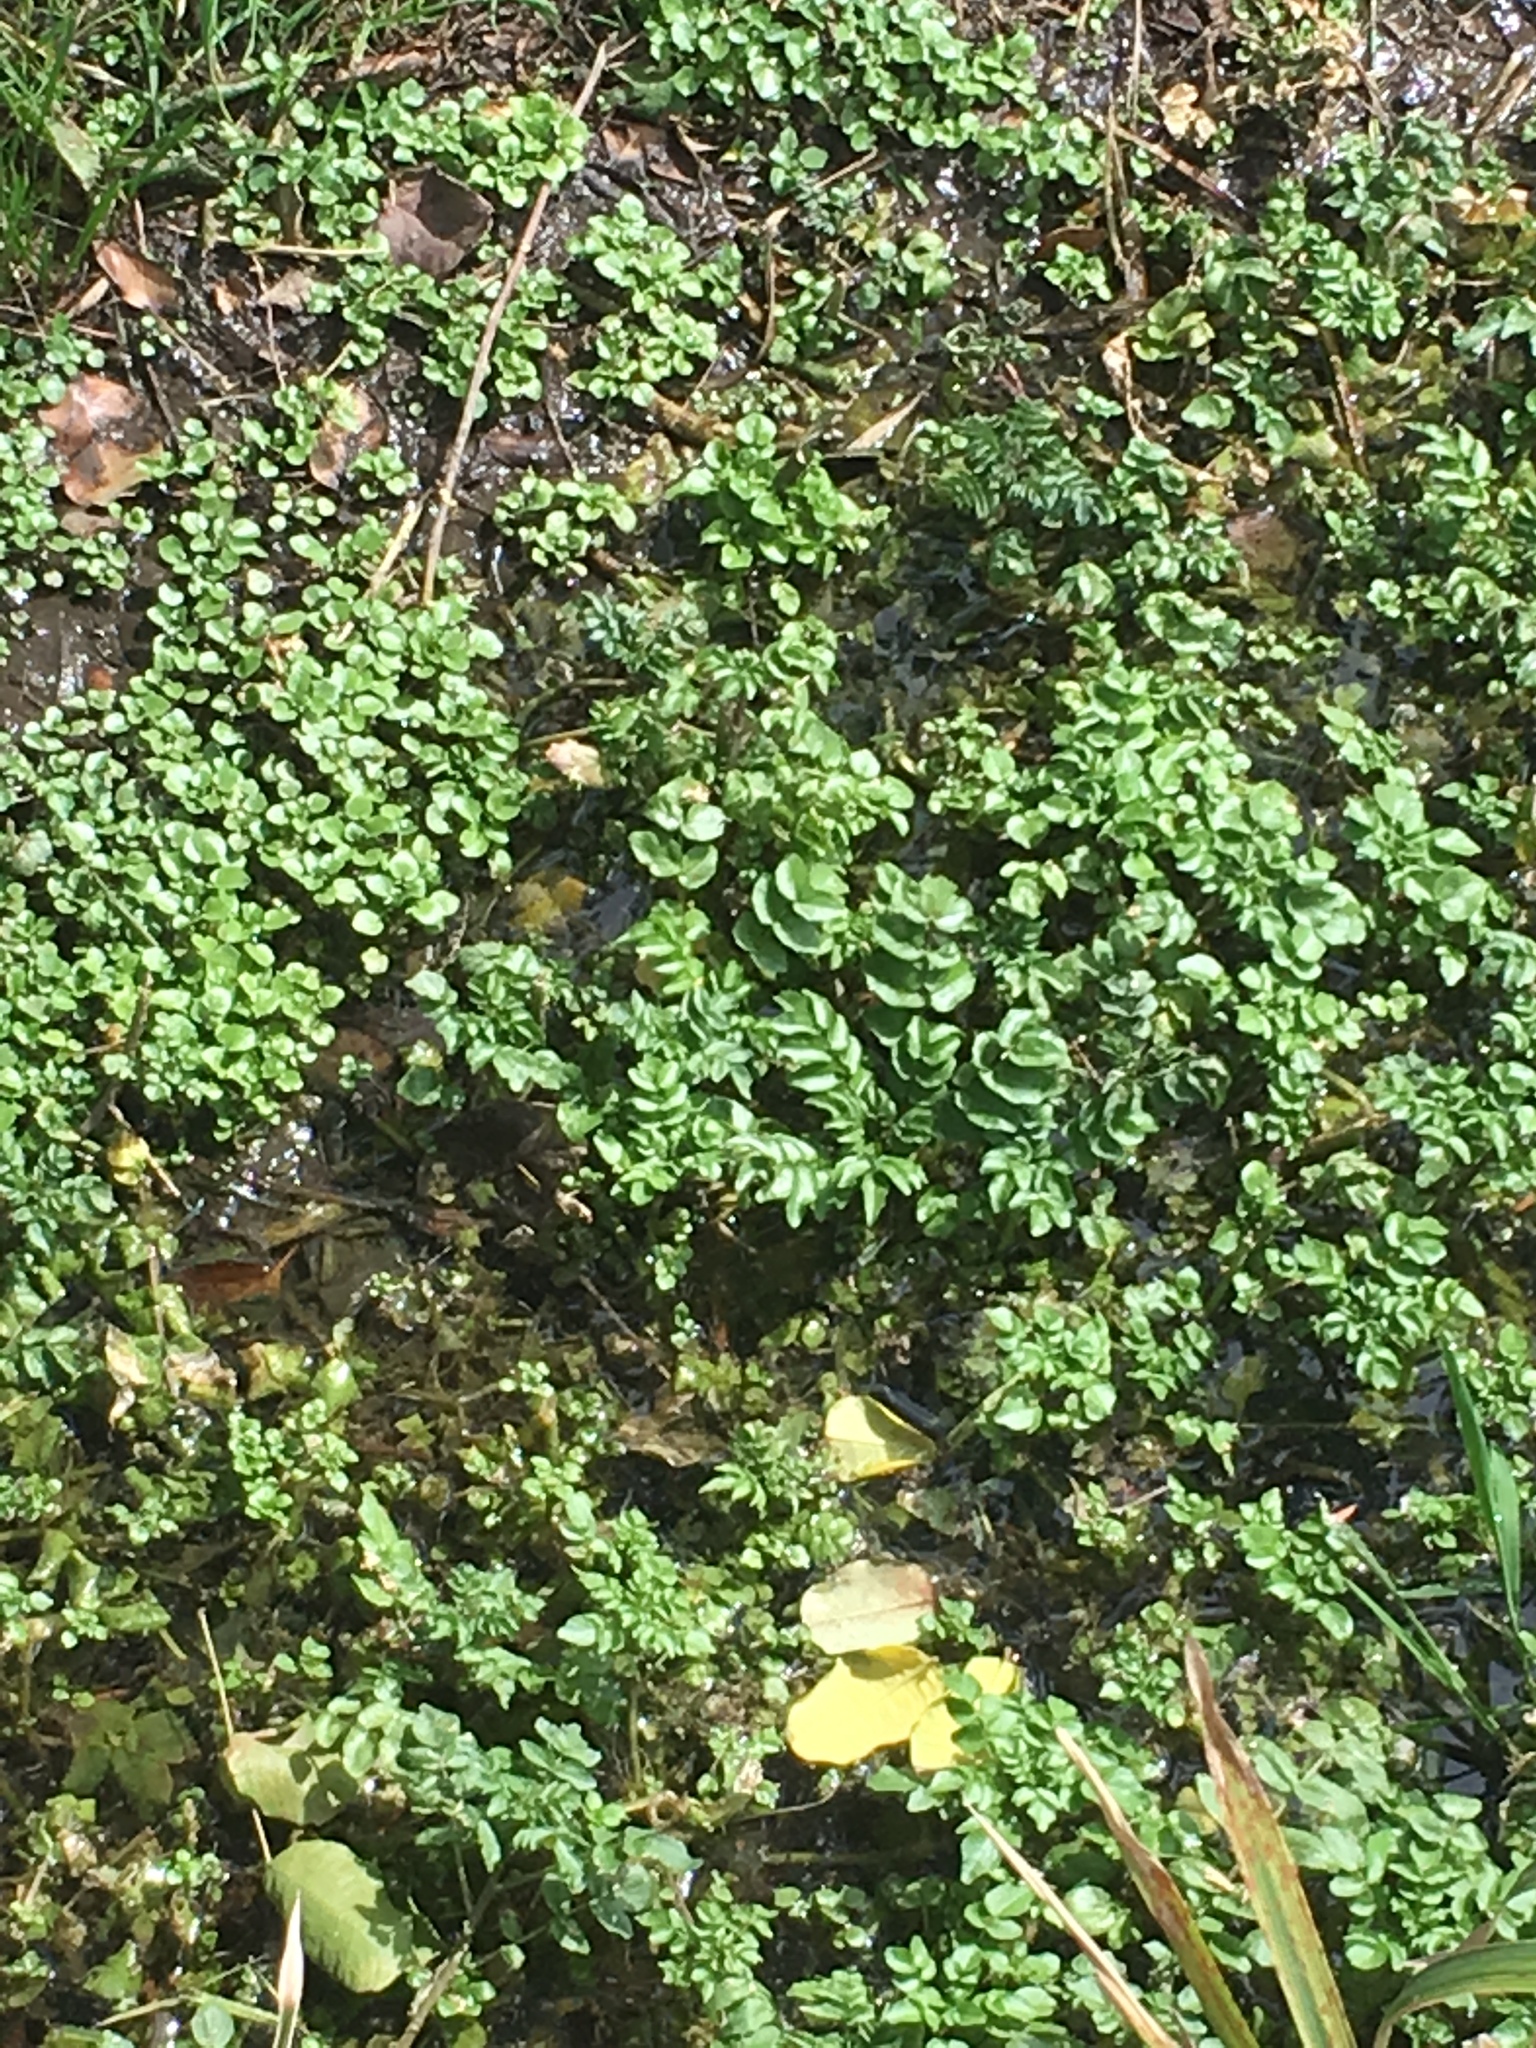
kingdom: Plantae
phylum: Tracheophyta
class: Magnoliopsida
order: Brassicales
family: Brassicaceae
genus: Nasturtium
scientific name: Nasturtium officinale
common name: Watercress
